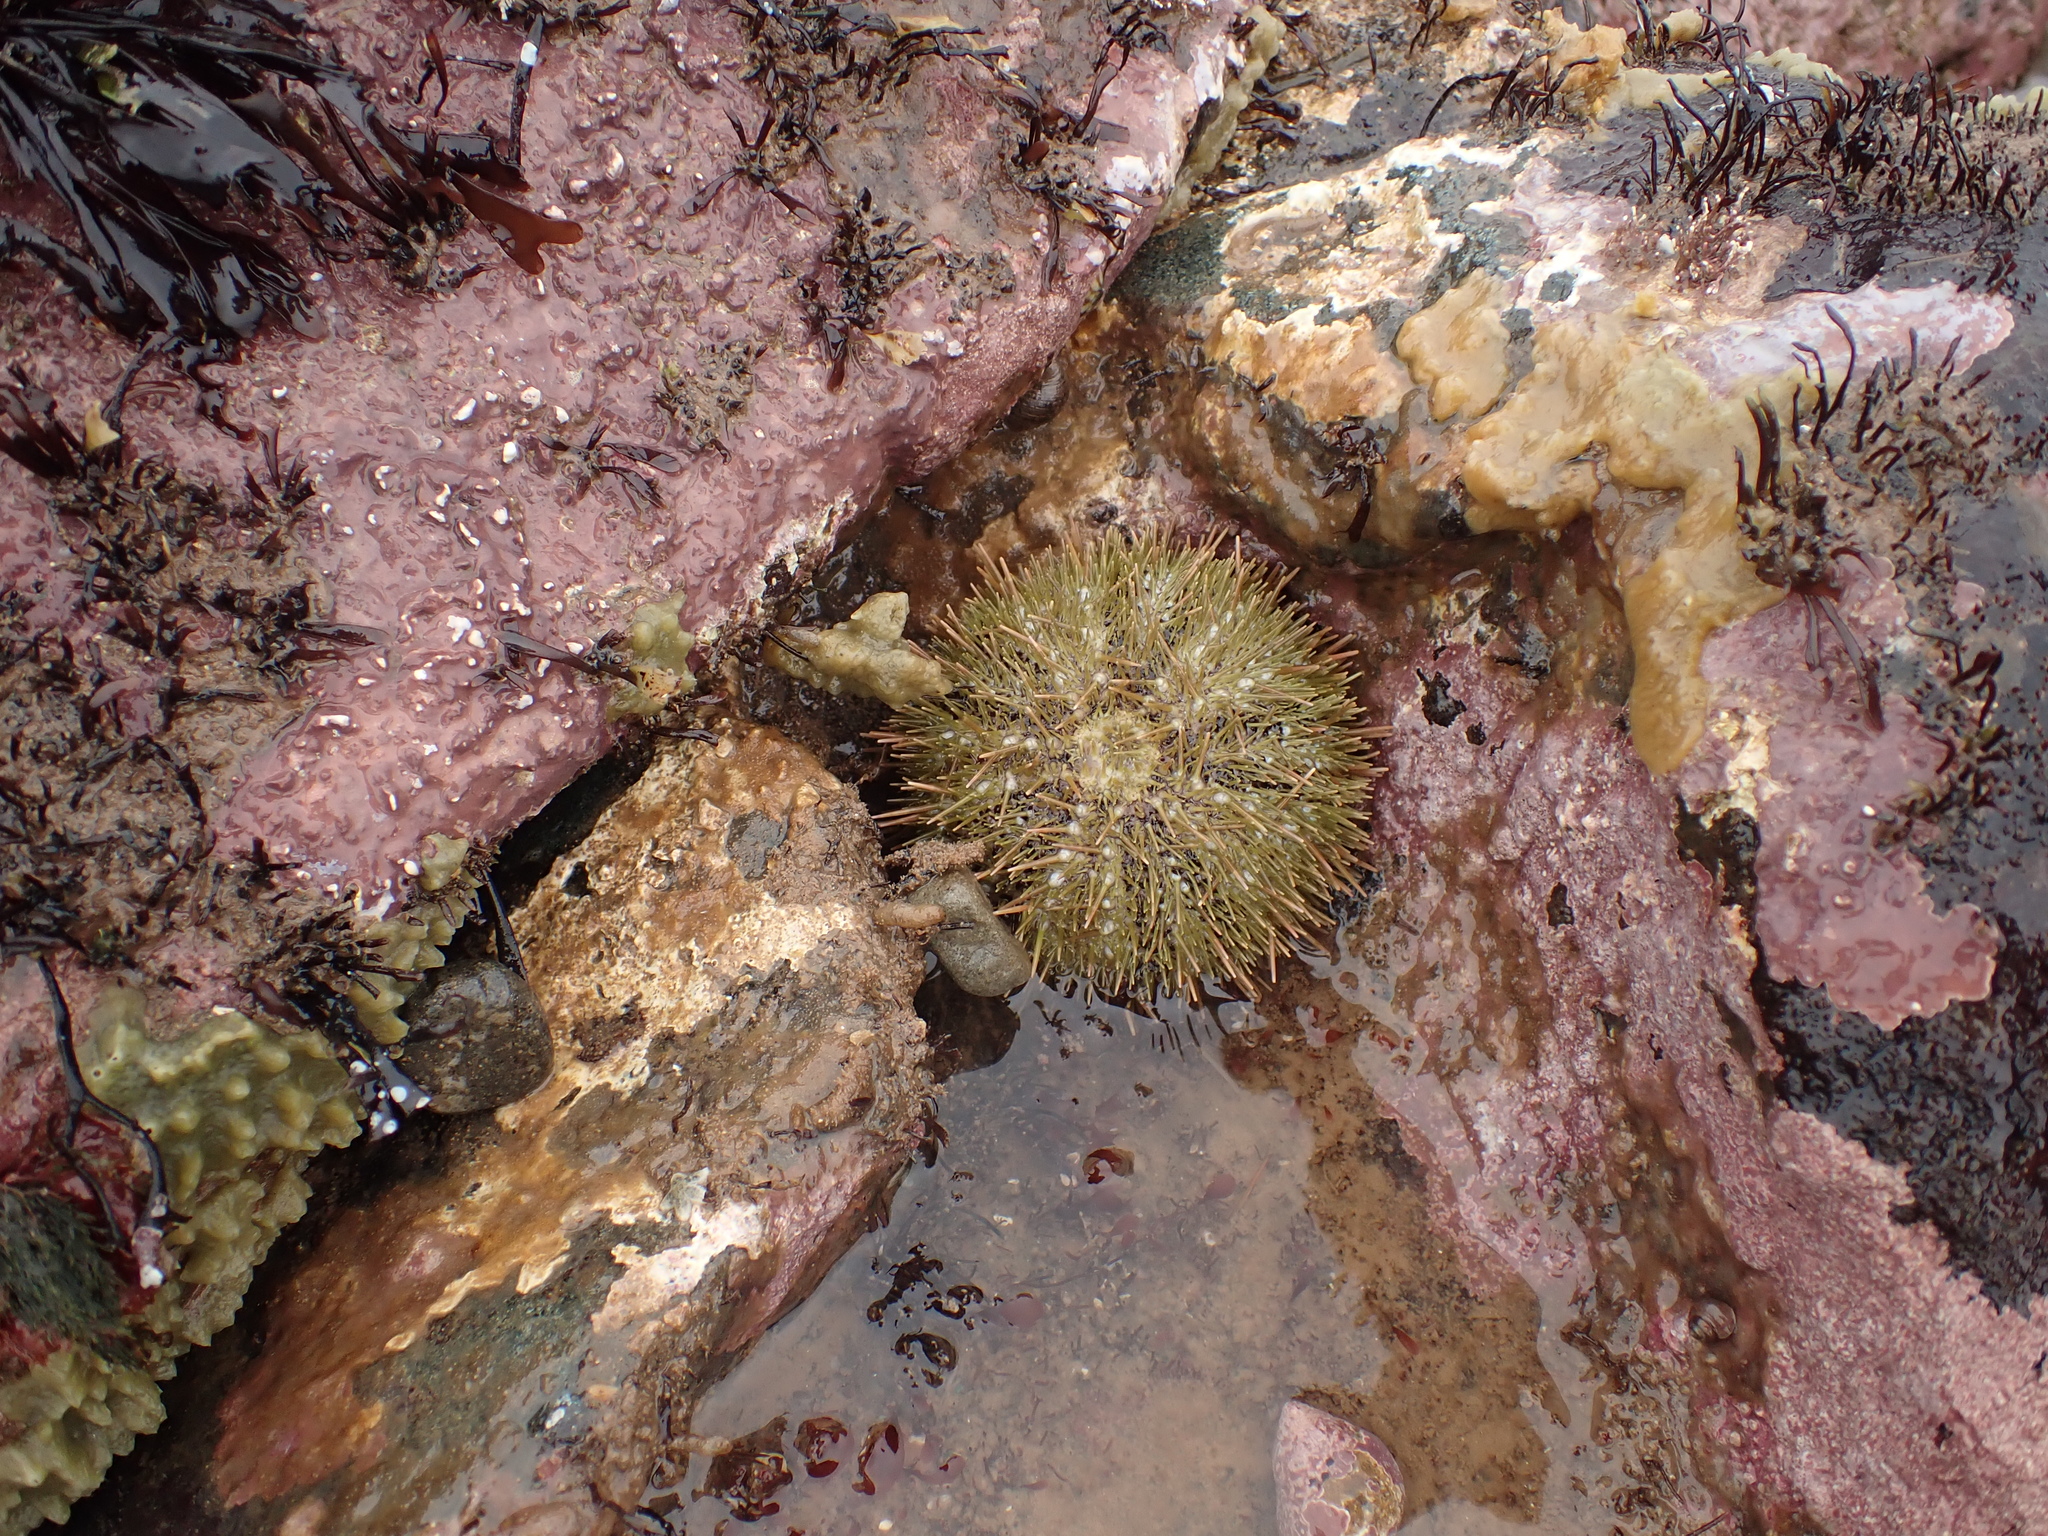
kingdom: Animalia
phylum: Echinodermata
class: Echinoidea
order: Camarodonta
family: Strongylocentrotidae
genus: Strongylocentrotus
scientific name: Strongylocentrotus droebachiensis
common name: Northern sea urchin
